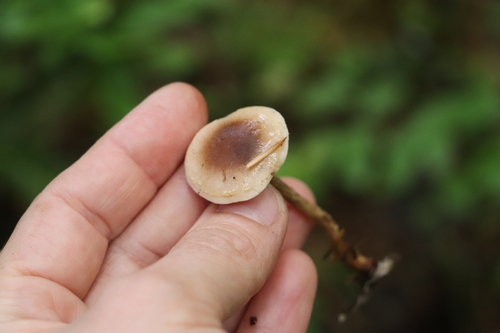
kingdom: Fungi
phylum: Basidiomycota
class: Agaricomycetes
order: Agaricales
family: Hymenogastraceae
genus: Hebeloma
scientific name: Hebeloma
